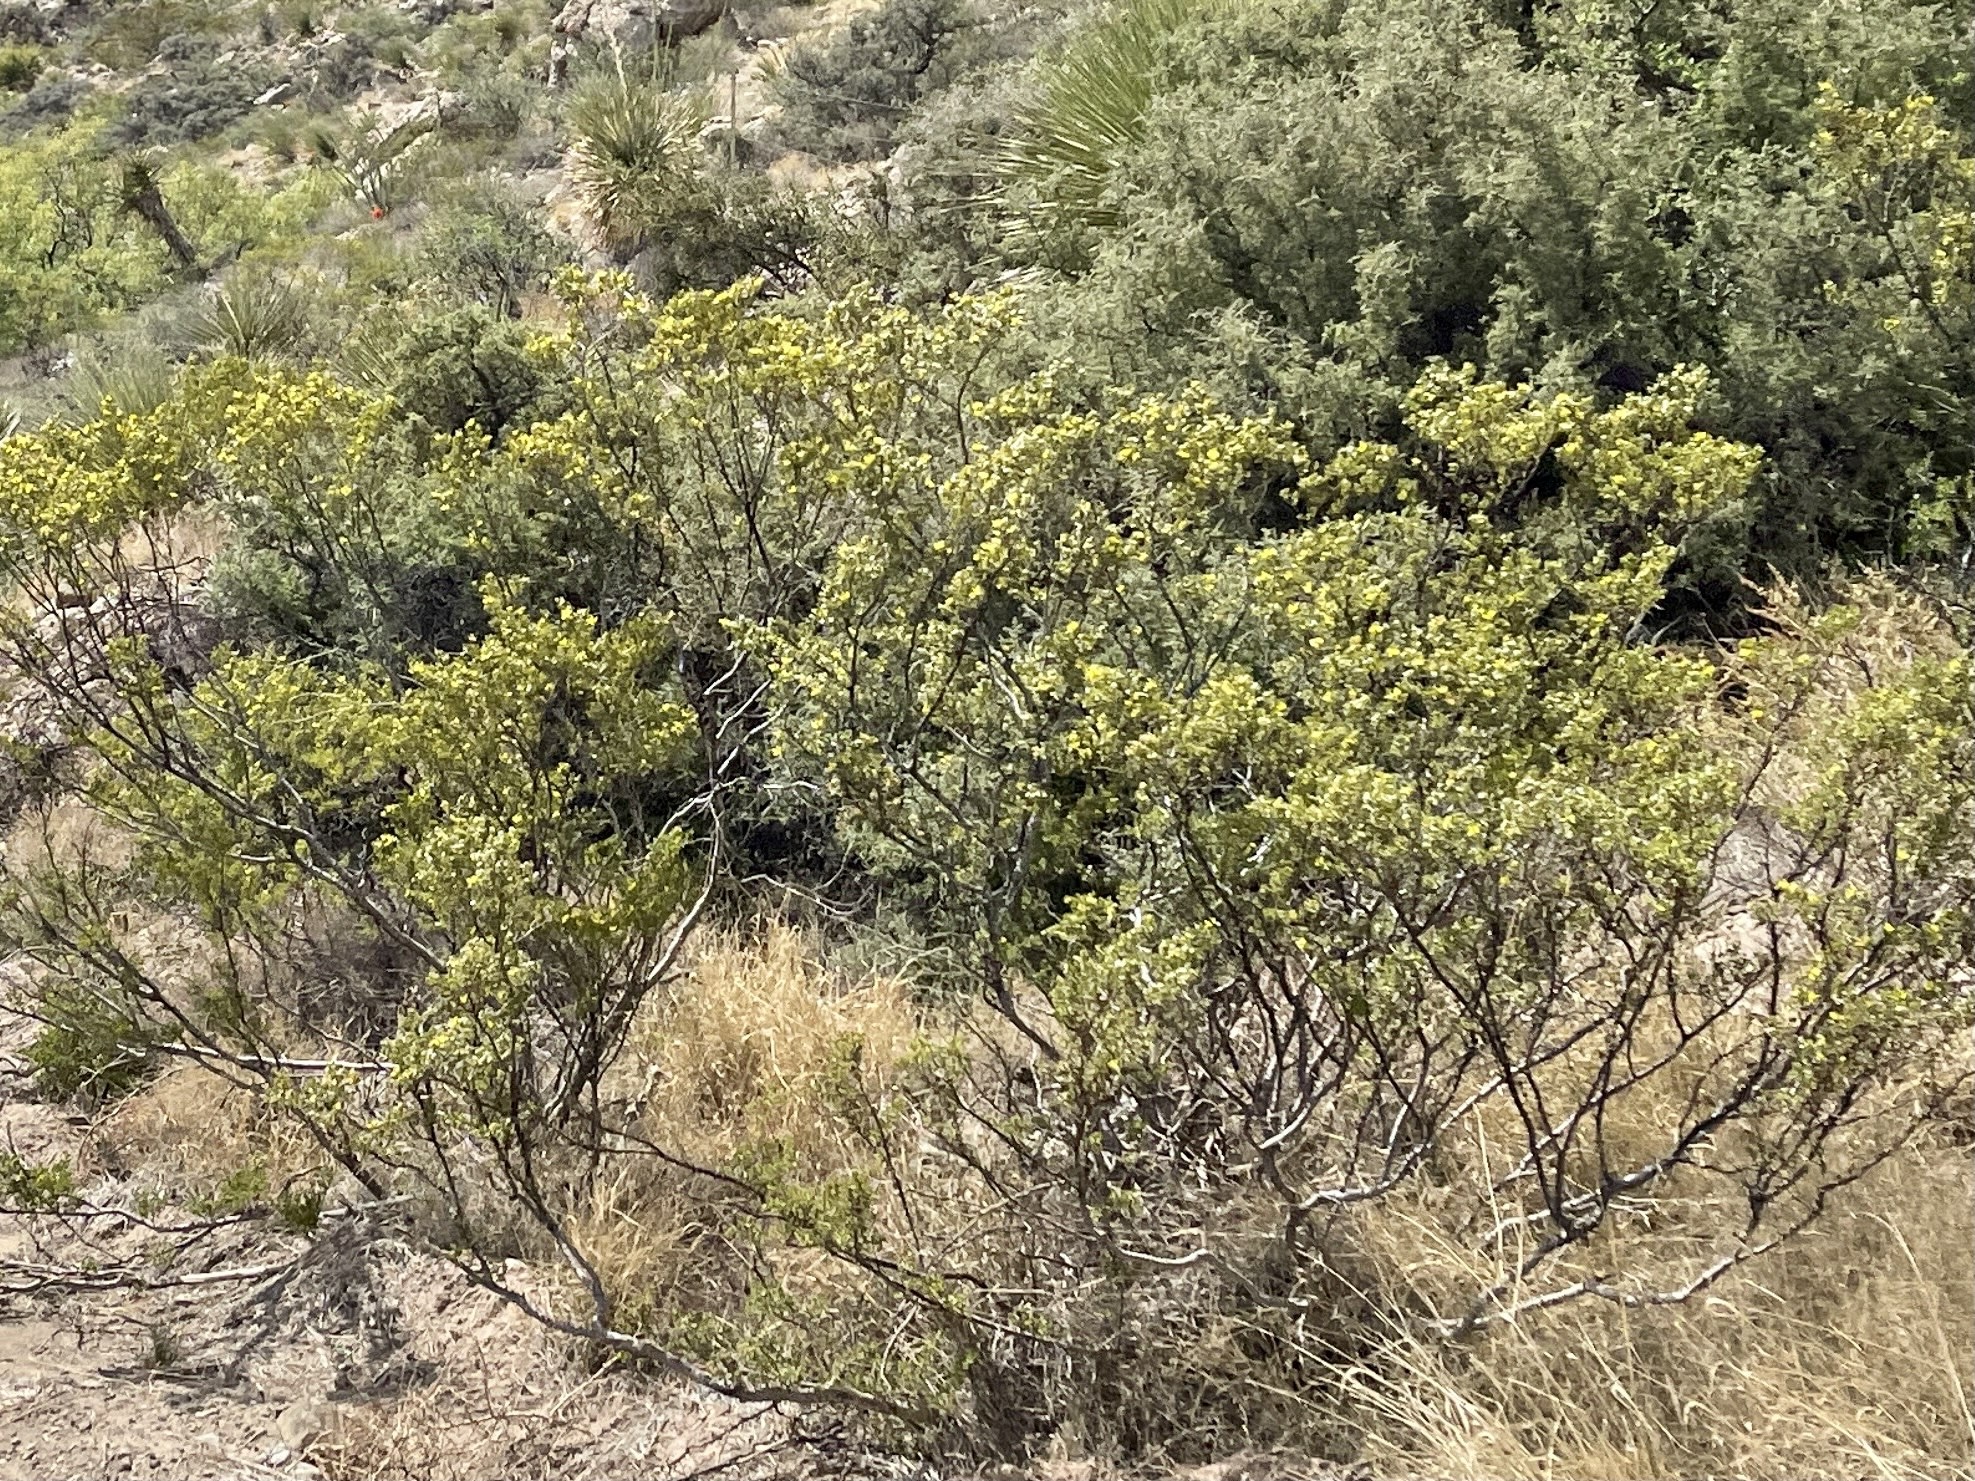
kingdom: Plantae
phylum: Tracheophyta
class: Magnoliopsida
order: Zygophyllales
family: Zygophyllaceae
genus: Larrea
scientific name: Larrea tridentata
